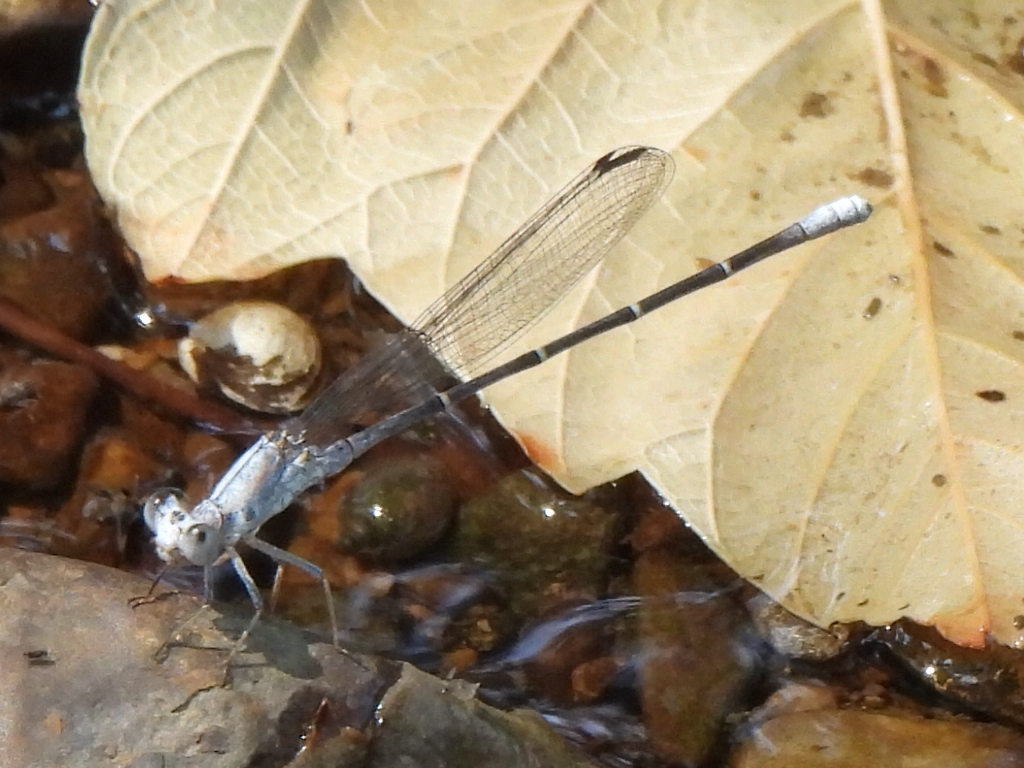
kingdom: Animalia
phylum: Arthropoda
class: Insecta
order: Odonata
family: Coenagrionidae
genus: Argia
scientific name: Argia moesta
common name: Powdered dancer
